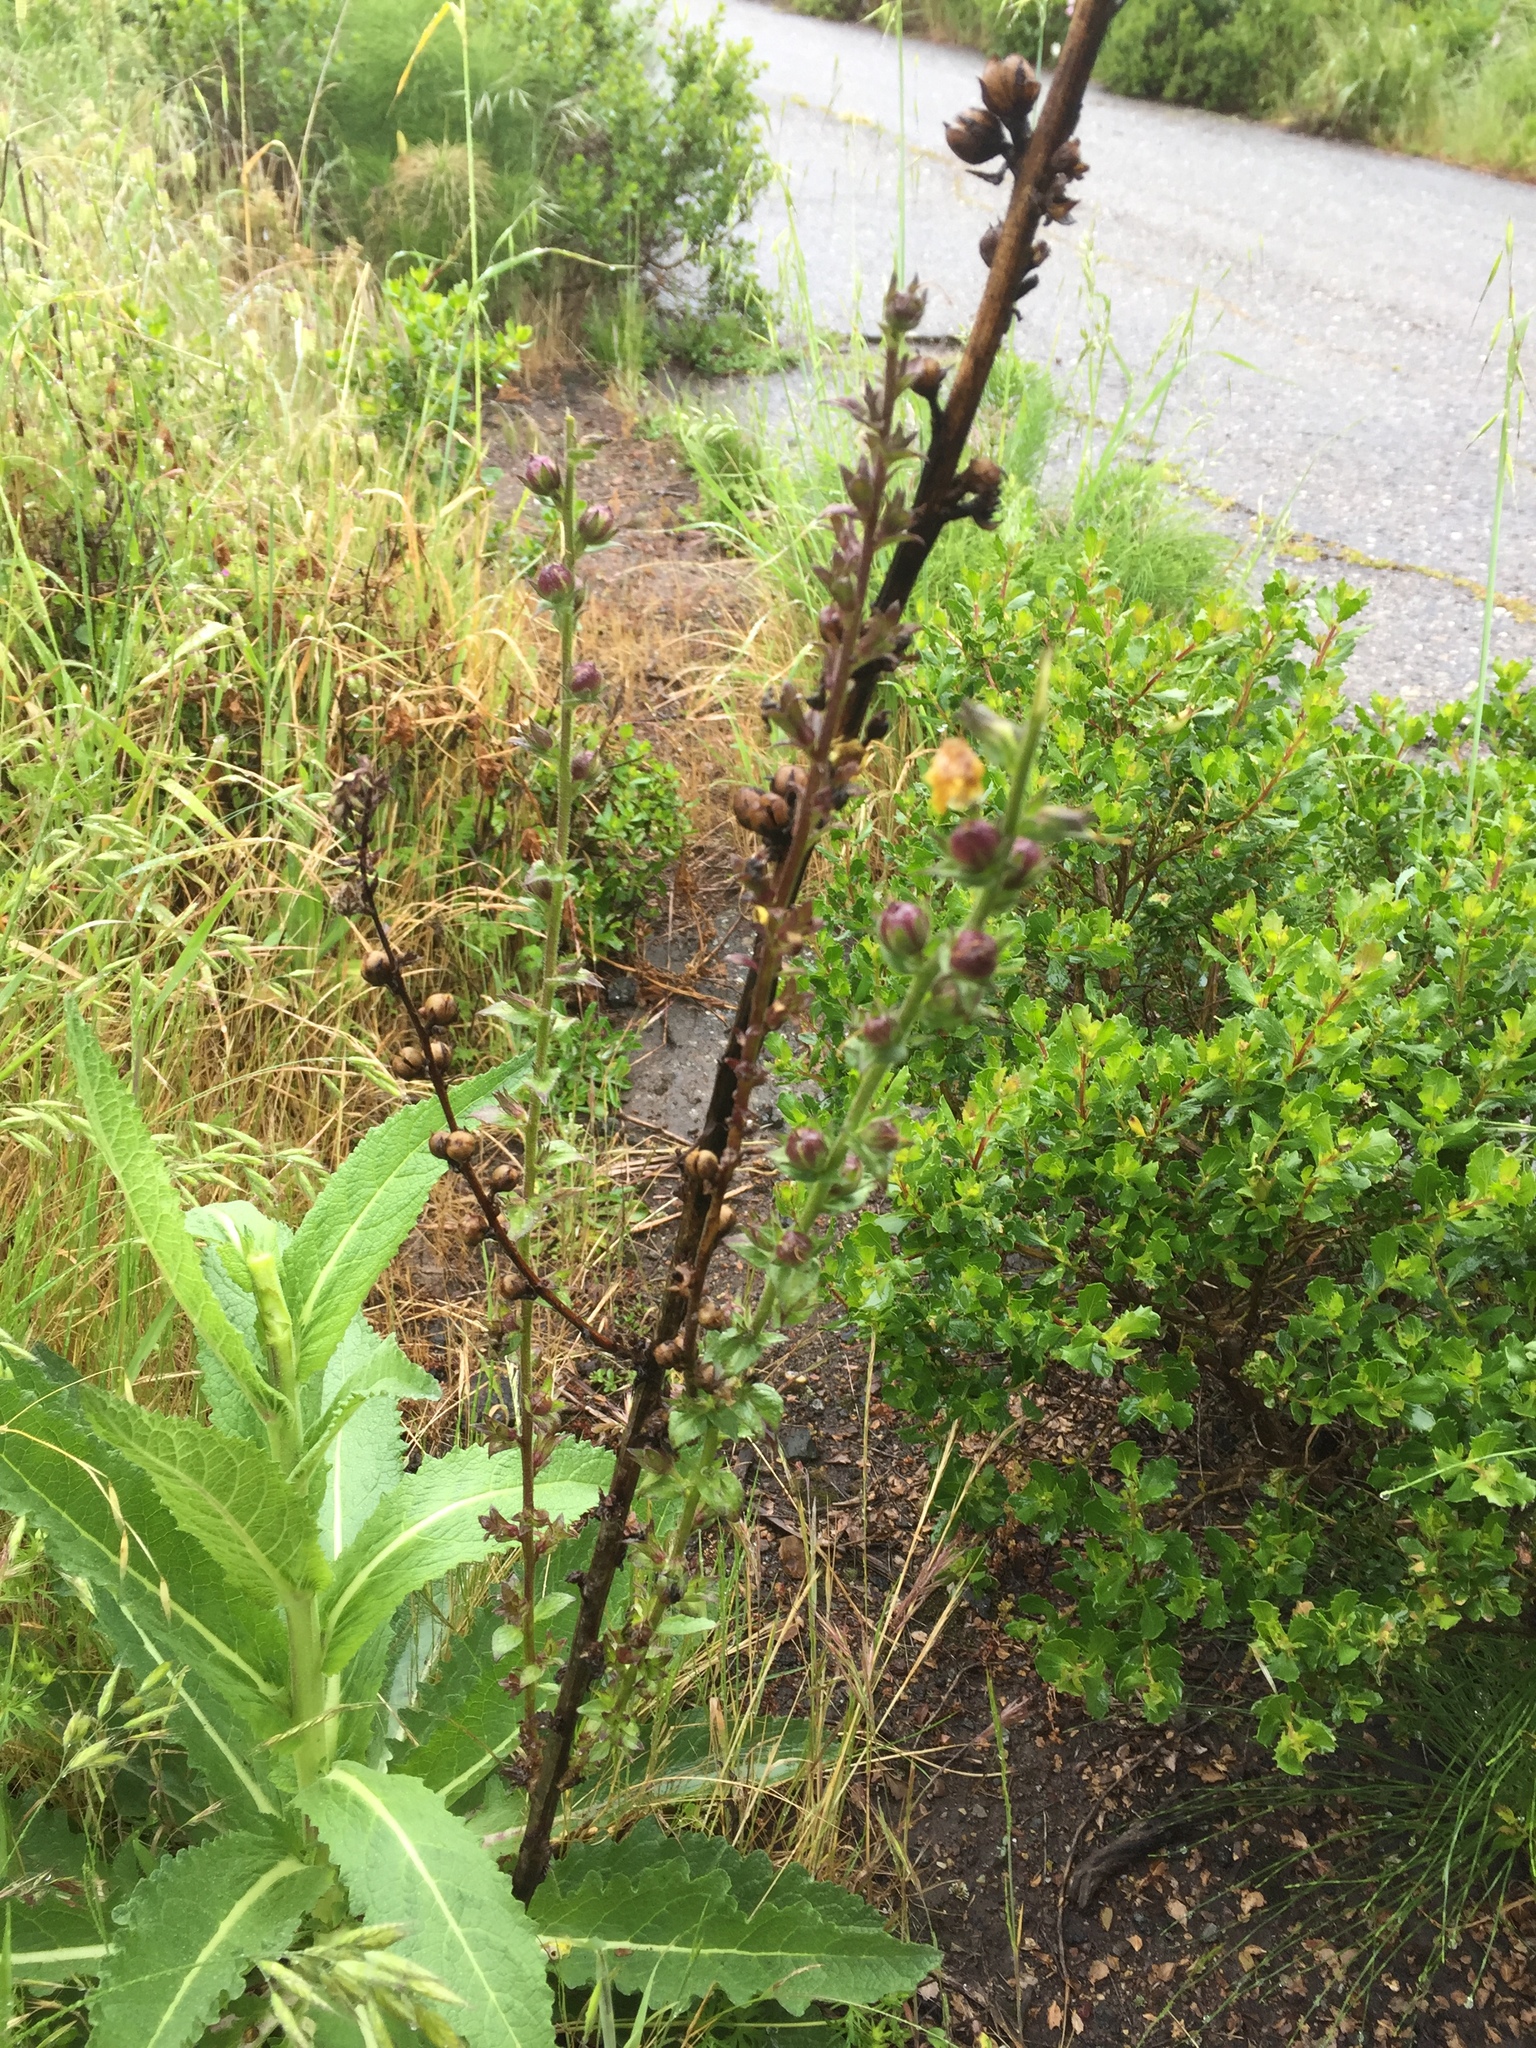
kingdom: Plantae
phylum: Tracheophyta
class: Magnoliopsida
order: Lamiales
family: Scrophulariaceae
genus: Verbascum
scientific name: Verbascum virgatum
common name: Twiggy mullein
